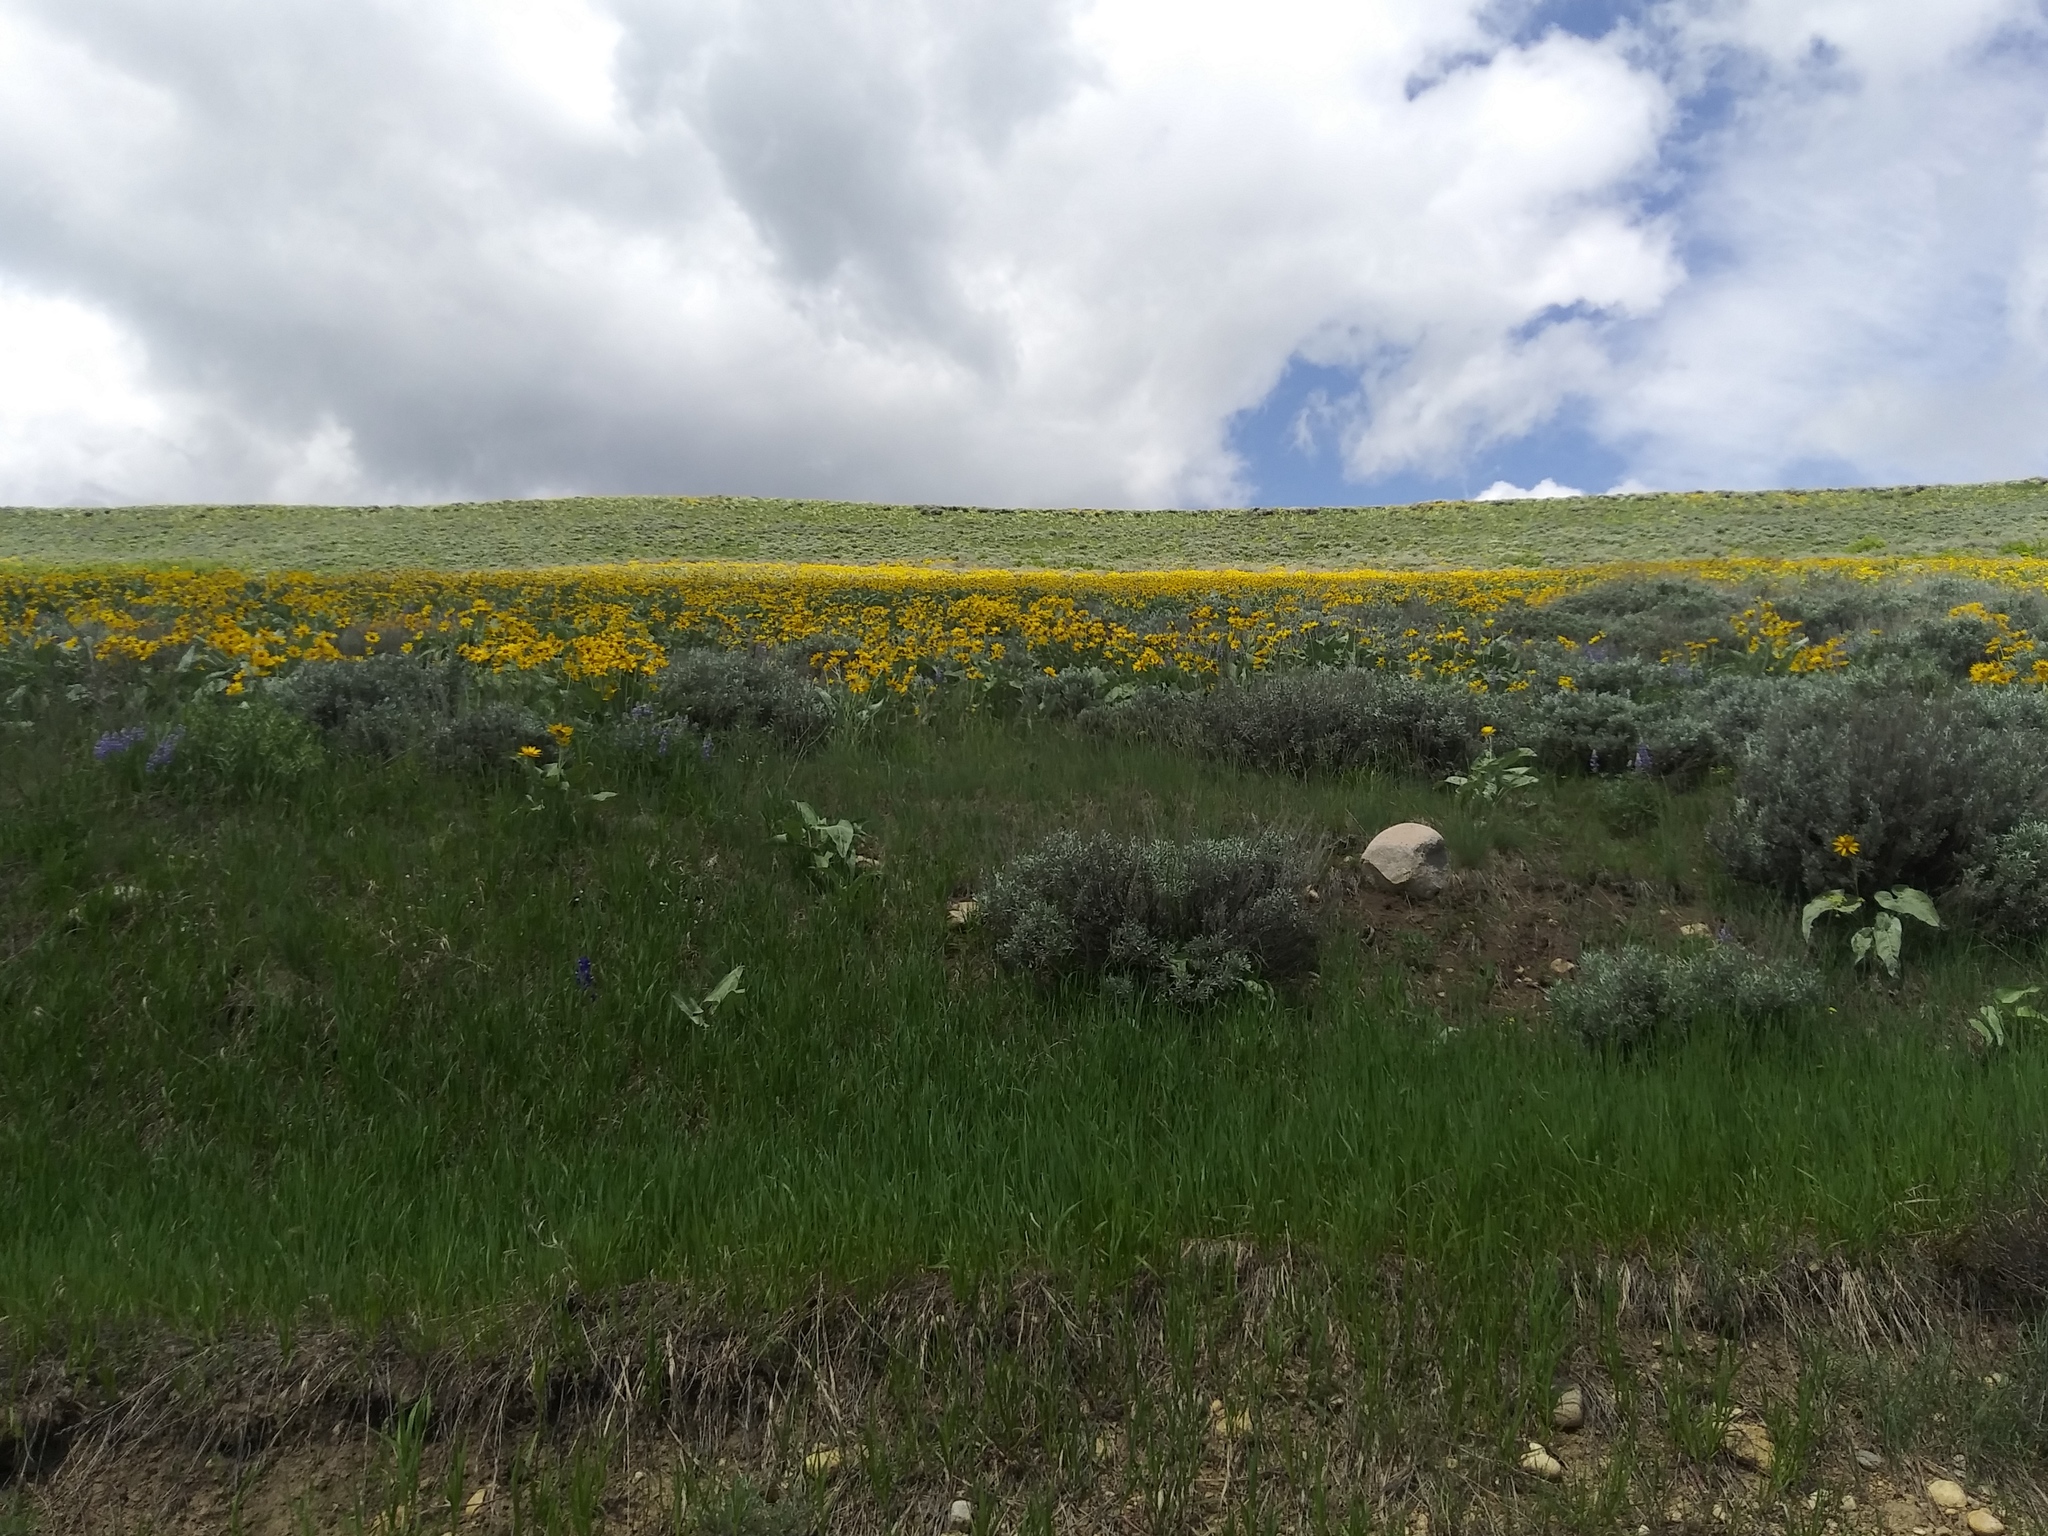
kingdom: Plantae
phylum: Tracheophyta
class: Magnoliopsida
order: Asterales
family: Asteraceae
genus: Wyethia
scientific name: Wyethia sagittata
